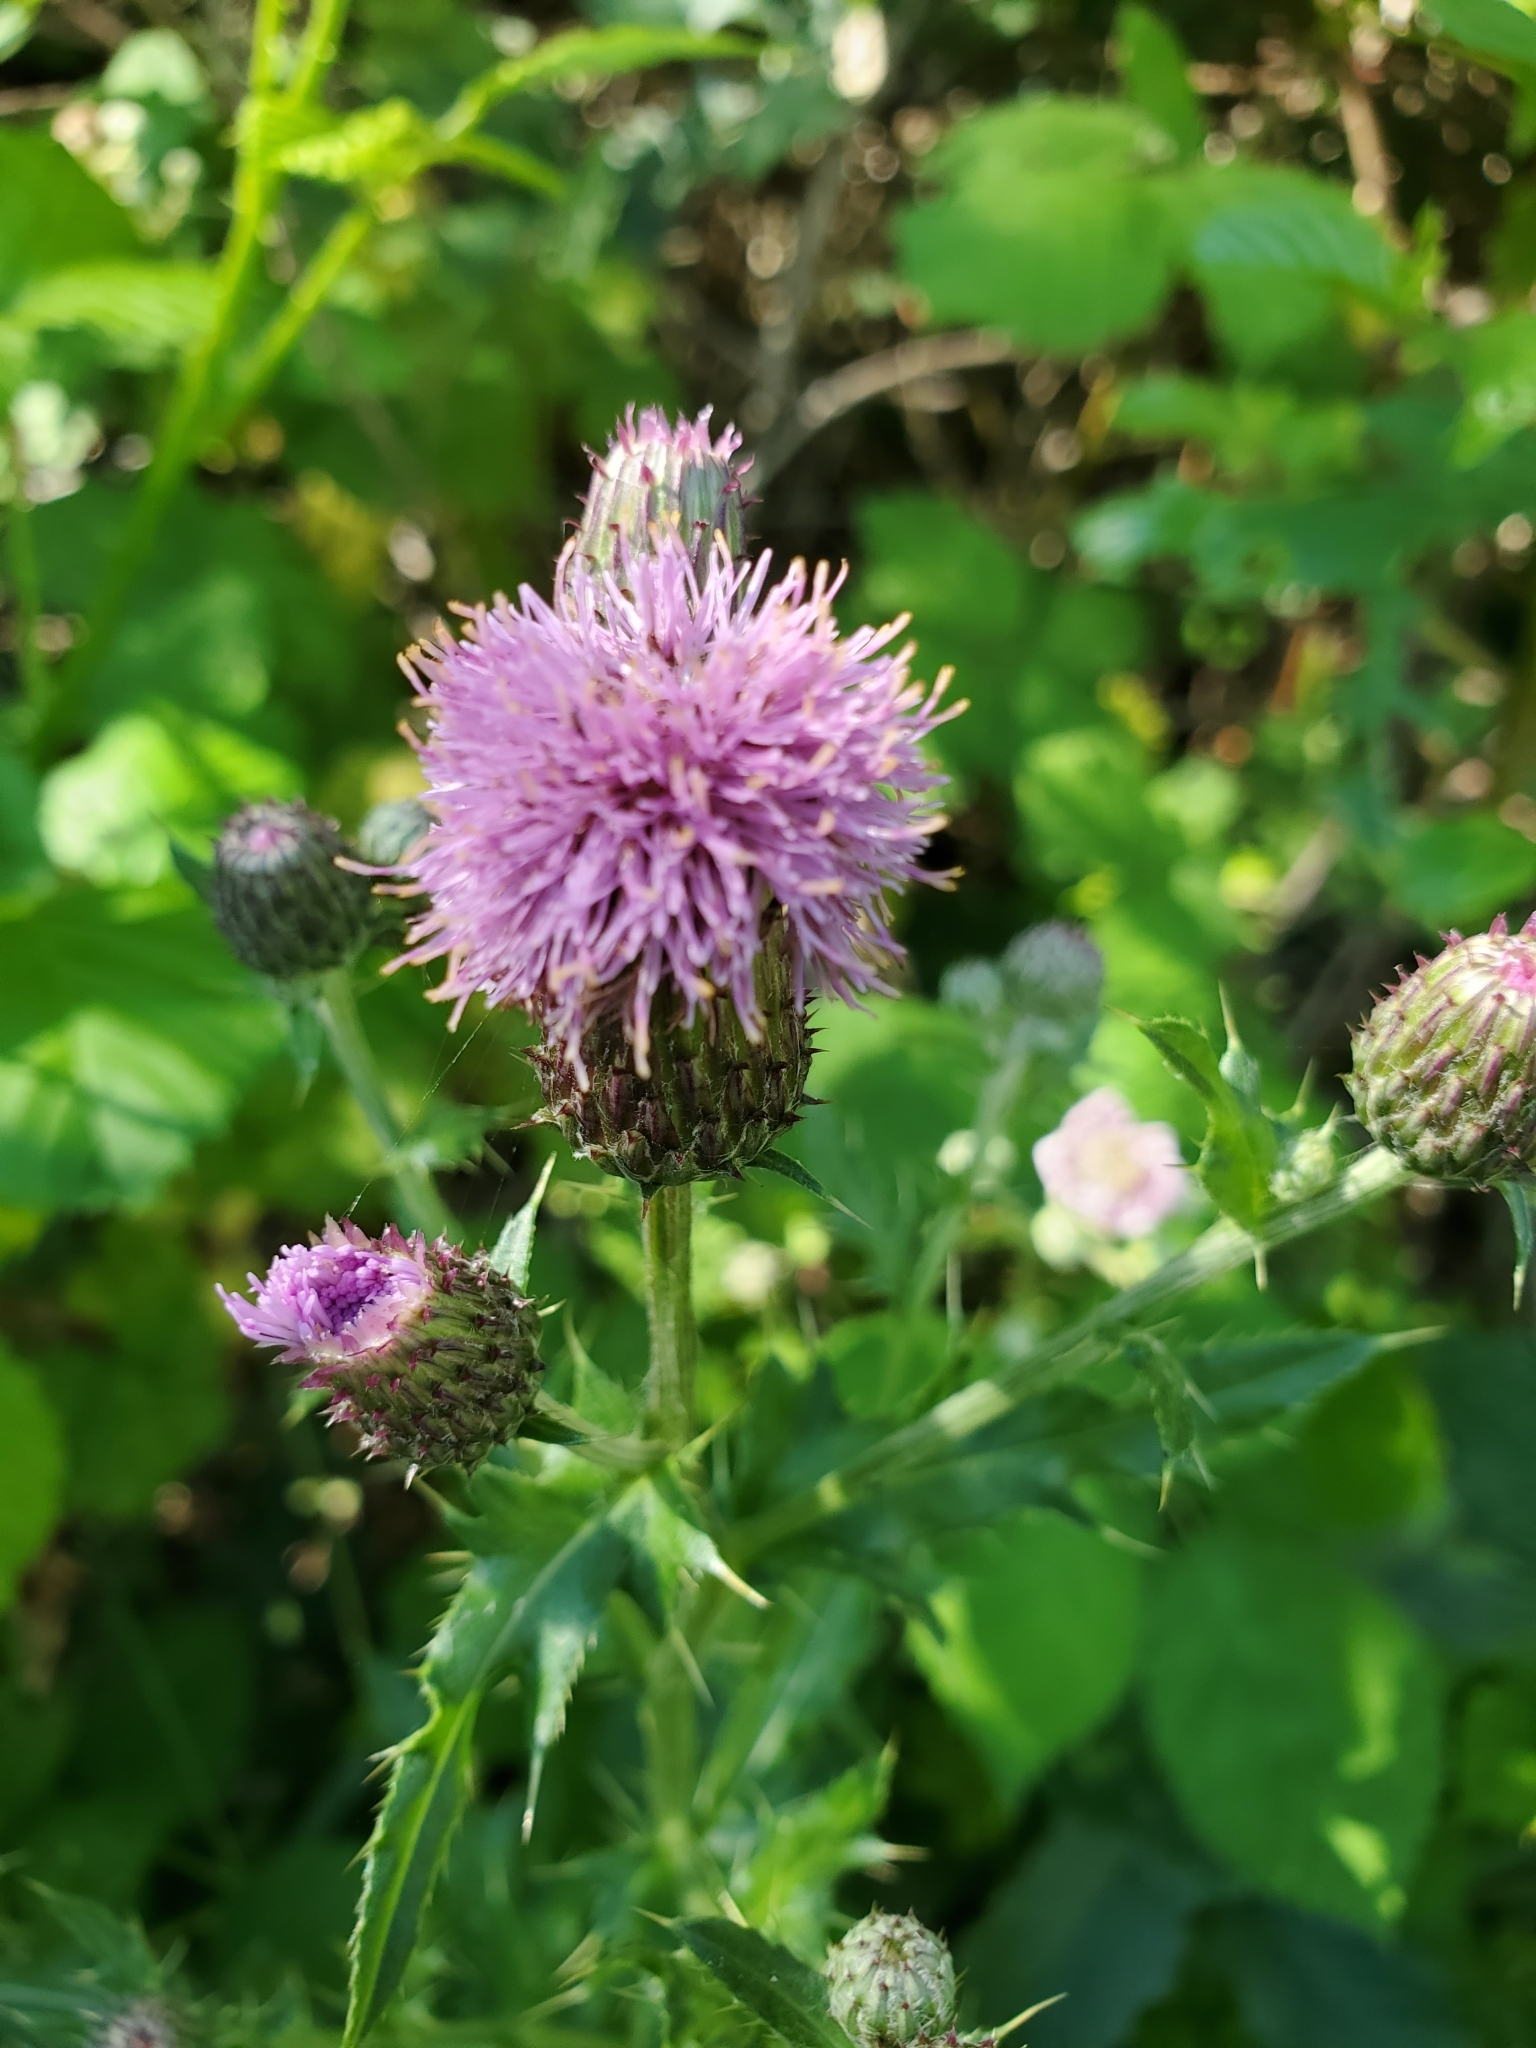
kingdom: Plantae
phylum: Tracheophyta
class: Magnoliopsida
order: Asterales
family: Asteraceae
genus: Cirsium
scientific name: Cirsium arvense
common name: Creeping thistle
